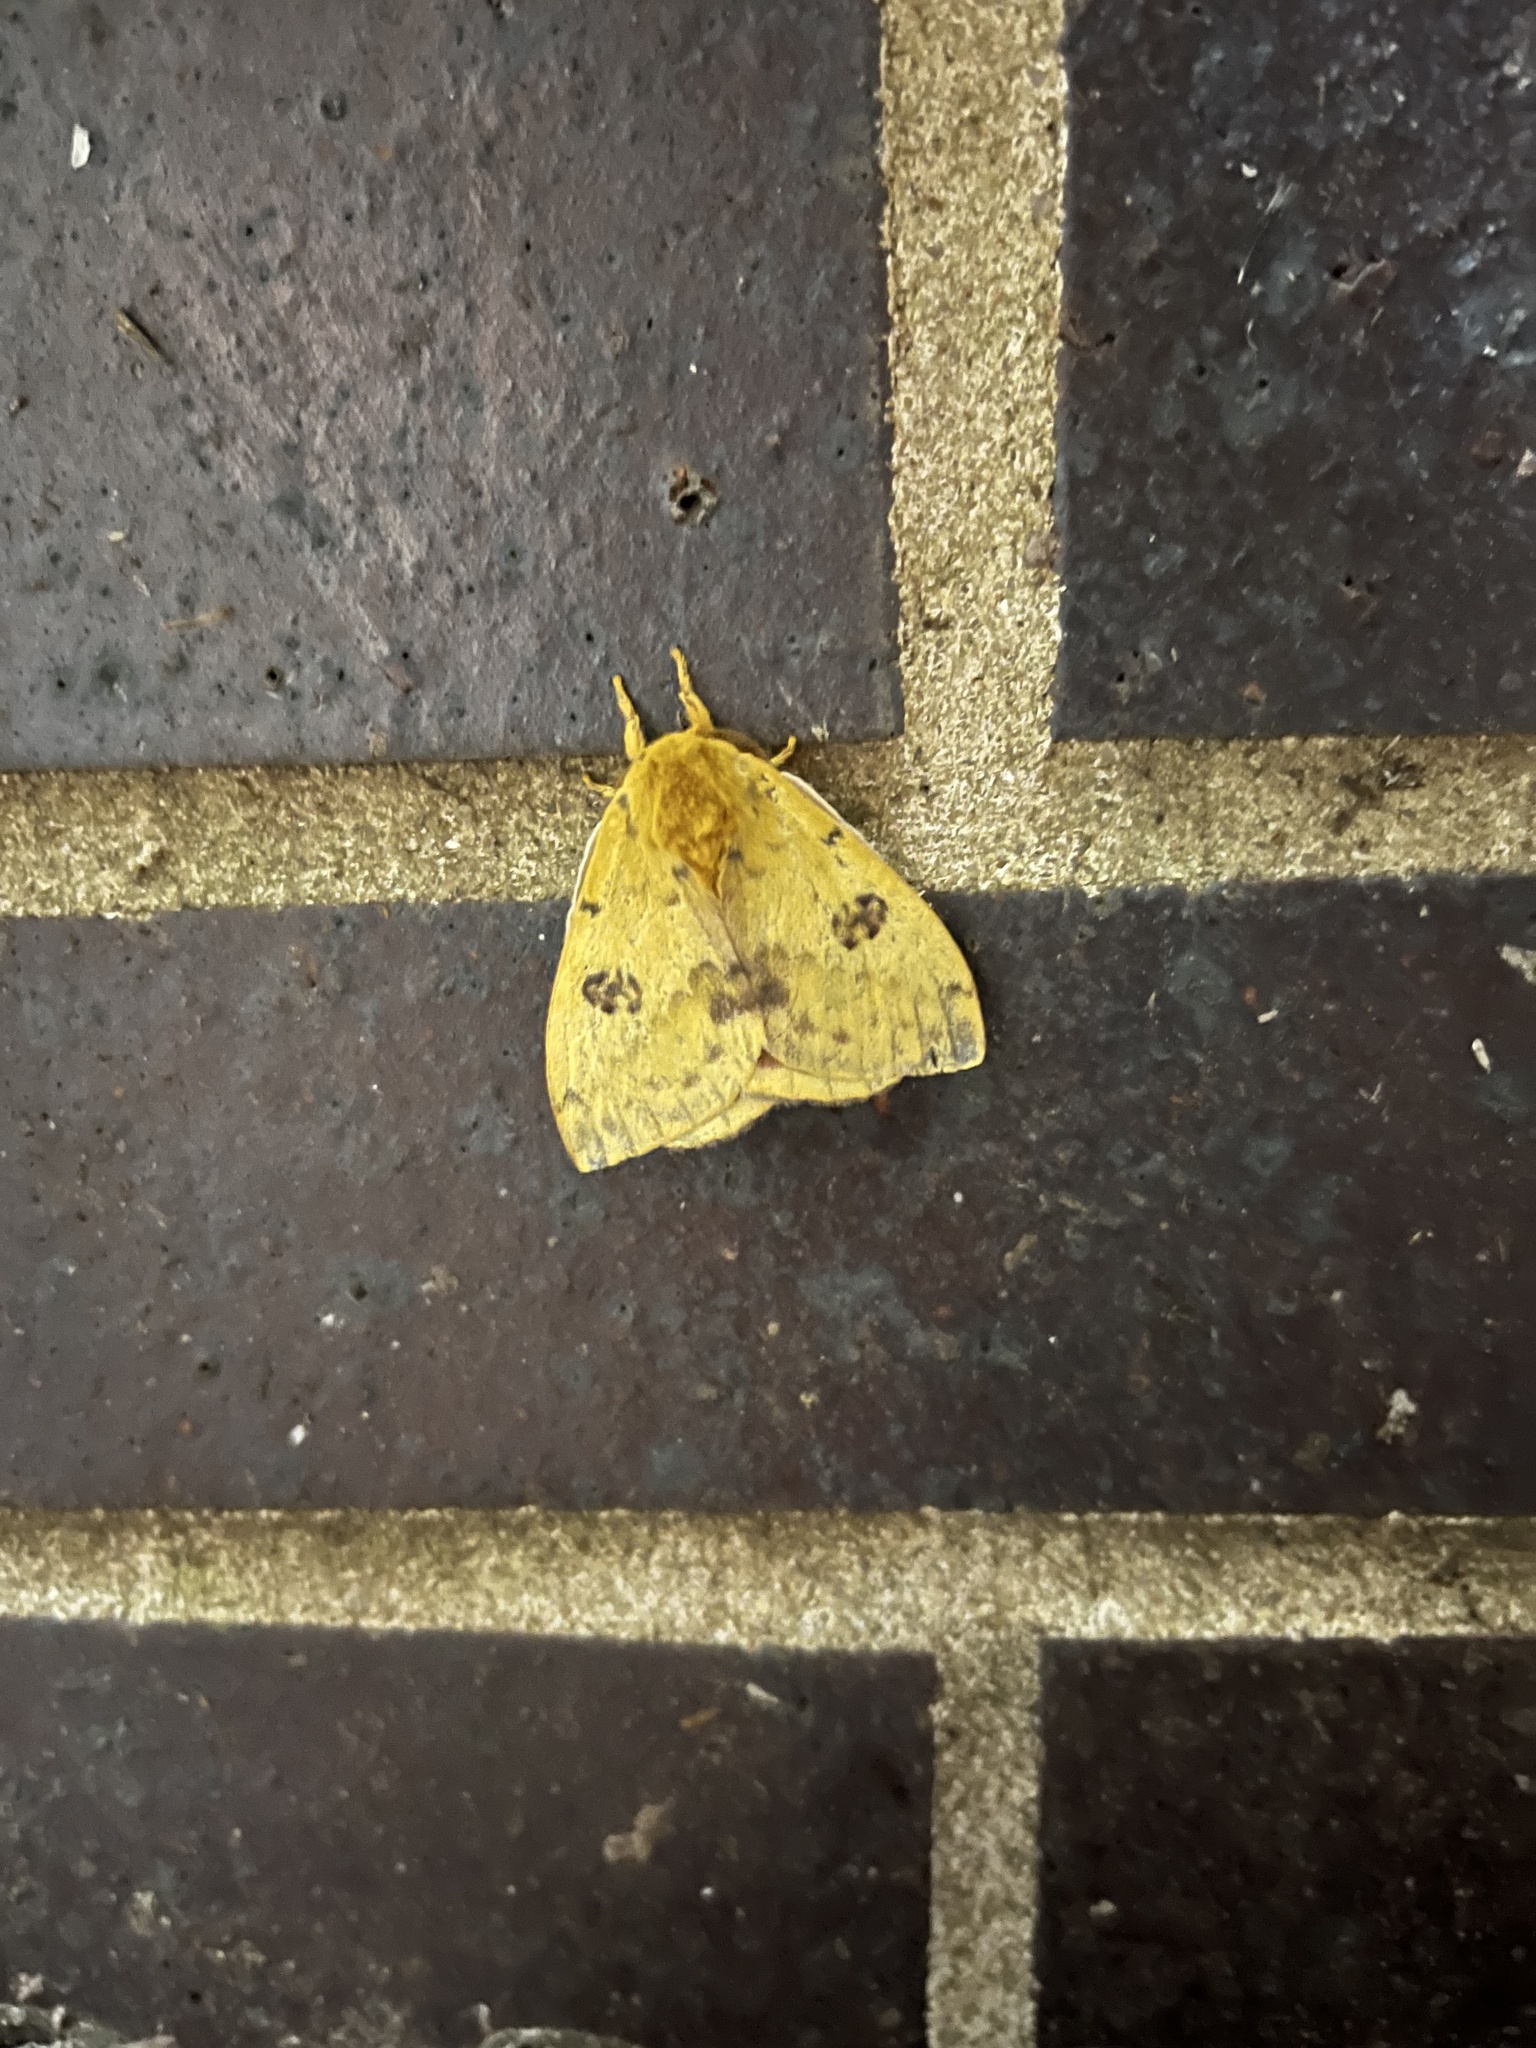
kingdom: Animalia
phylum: Arthropoda
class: Insecta
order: Lepidoptera
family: Saturniidae
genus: Automeris
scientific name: Automeris io
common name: Io moth
